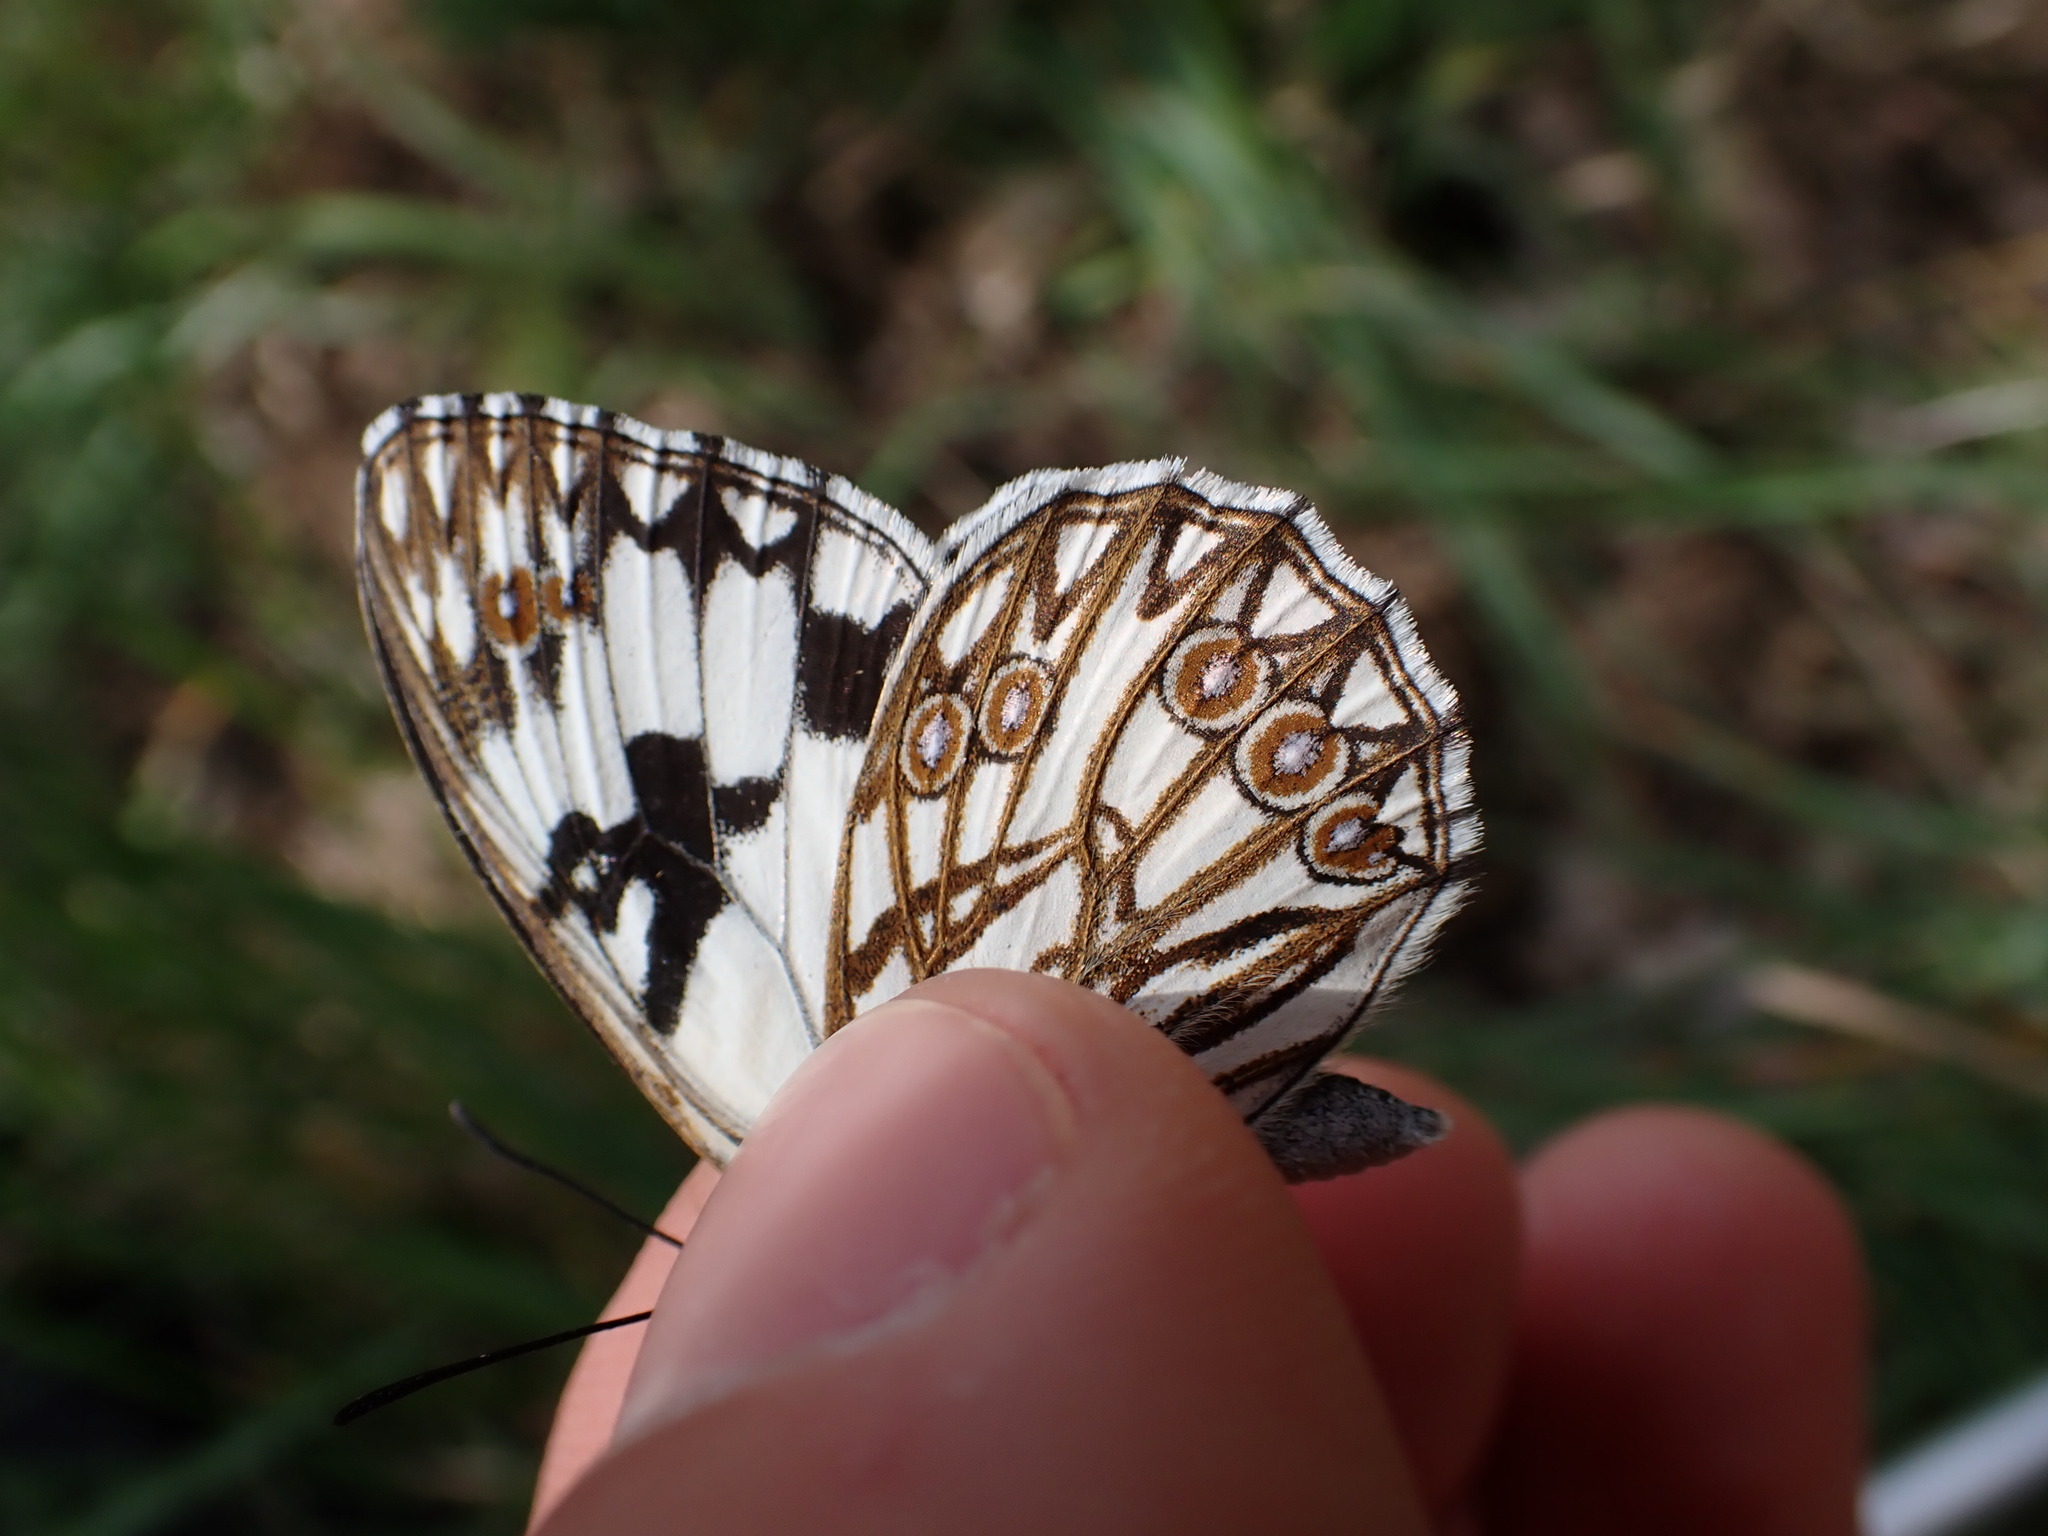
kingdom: Animalia
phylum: Arthropoda
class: Insecta
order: Lepidoptera
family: Nymphalidae
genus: Melanargia
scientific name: Melanargia occitanica
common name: Western marbled white
